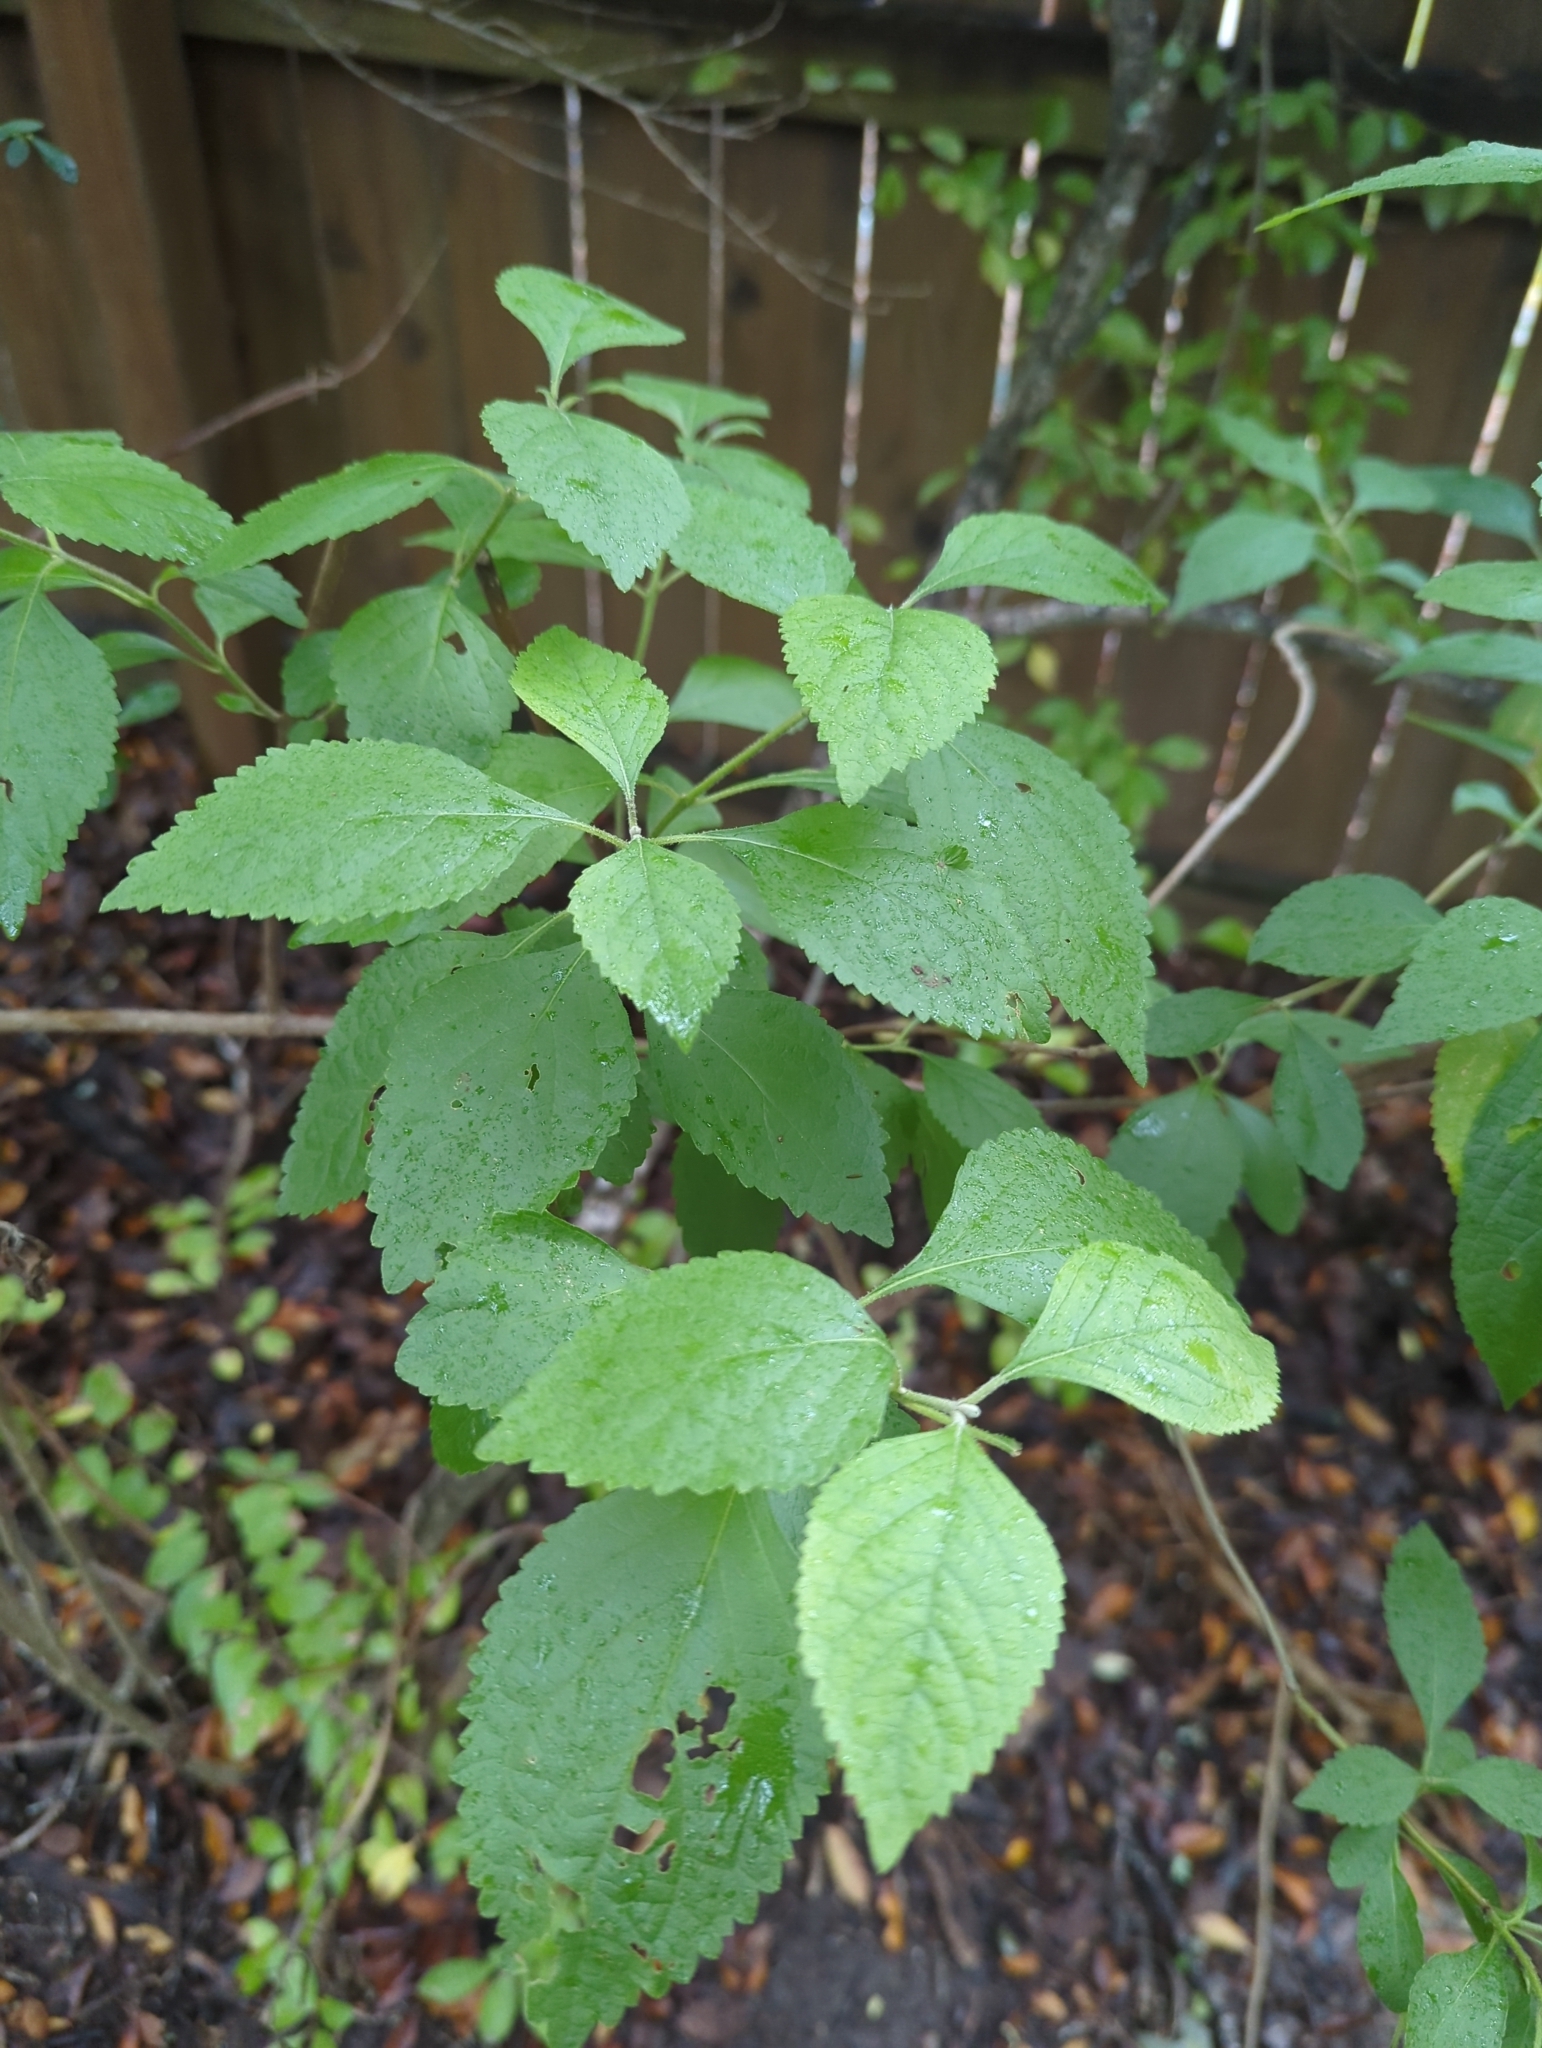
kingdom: Plantae
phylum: Tracheophyta
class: Magnoliopsida
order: Lamiales
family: Lamiaceae
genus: Callicarpa
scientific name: Callicarpa americana
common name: American beautyberry
